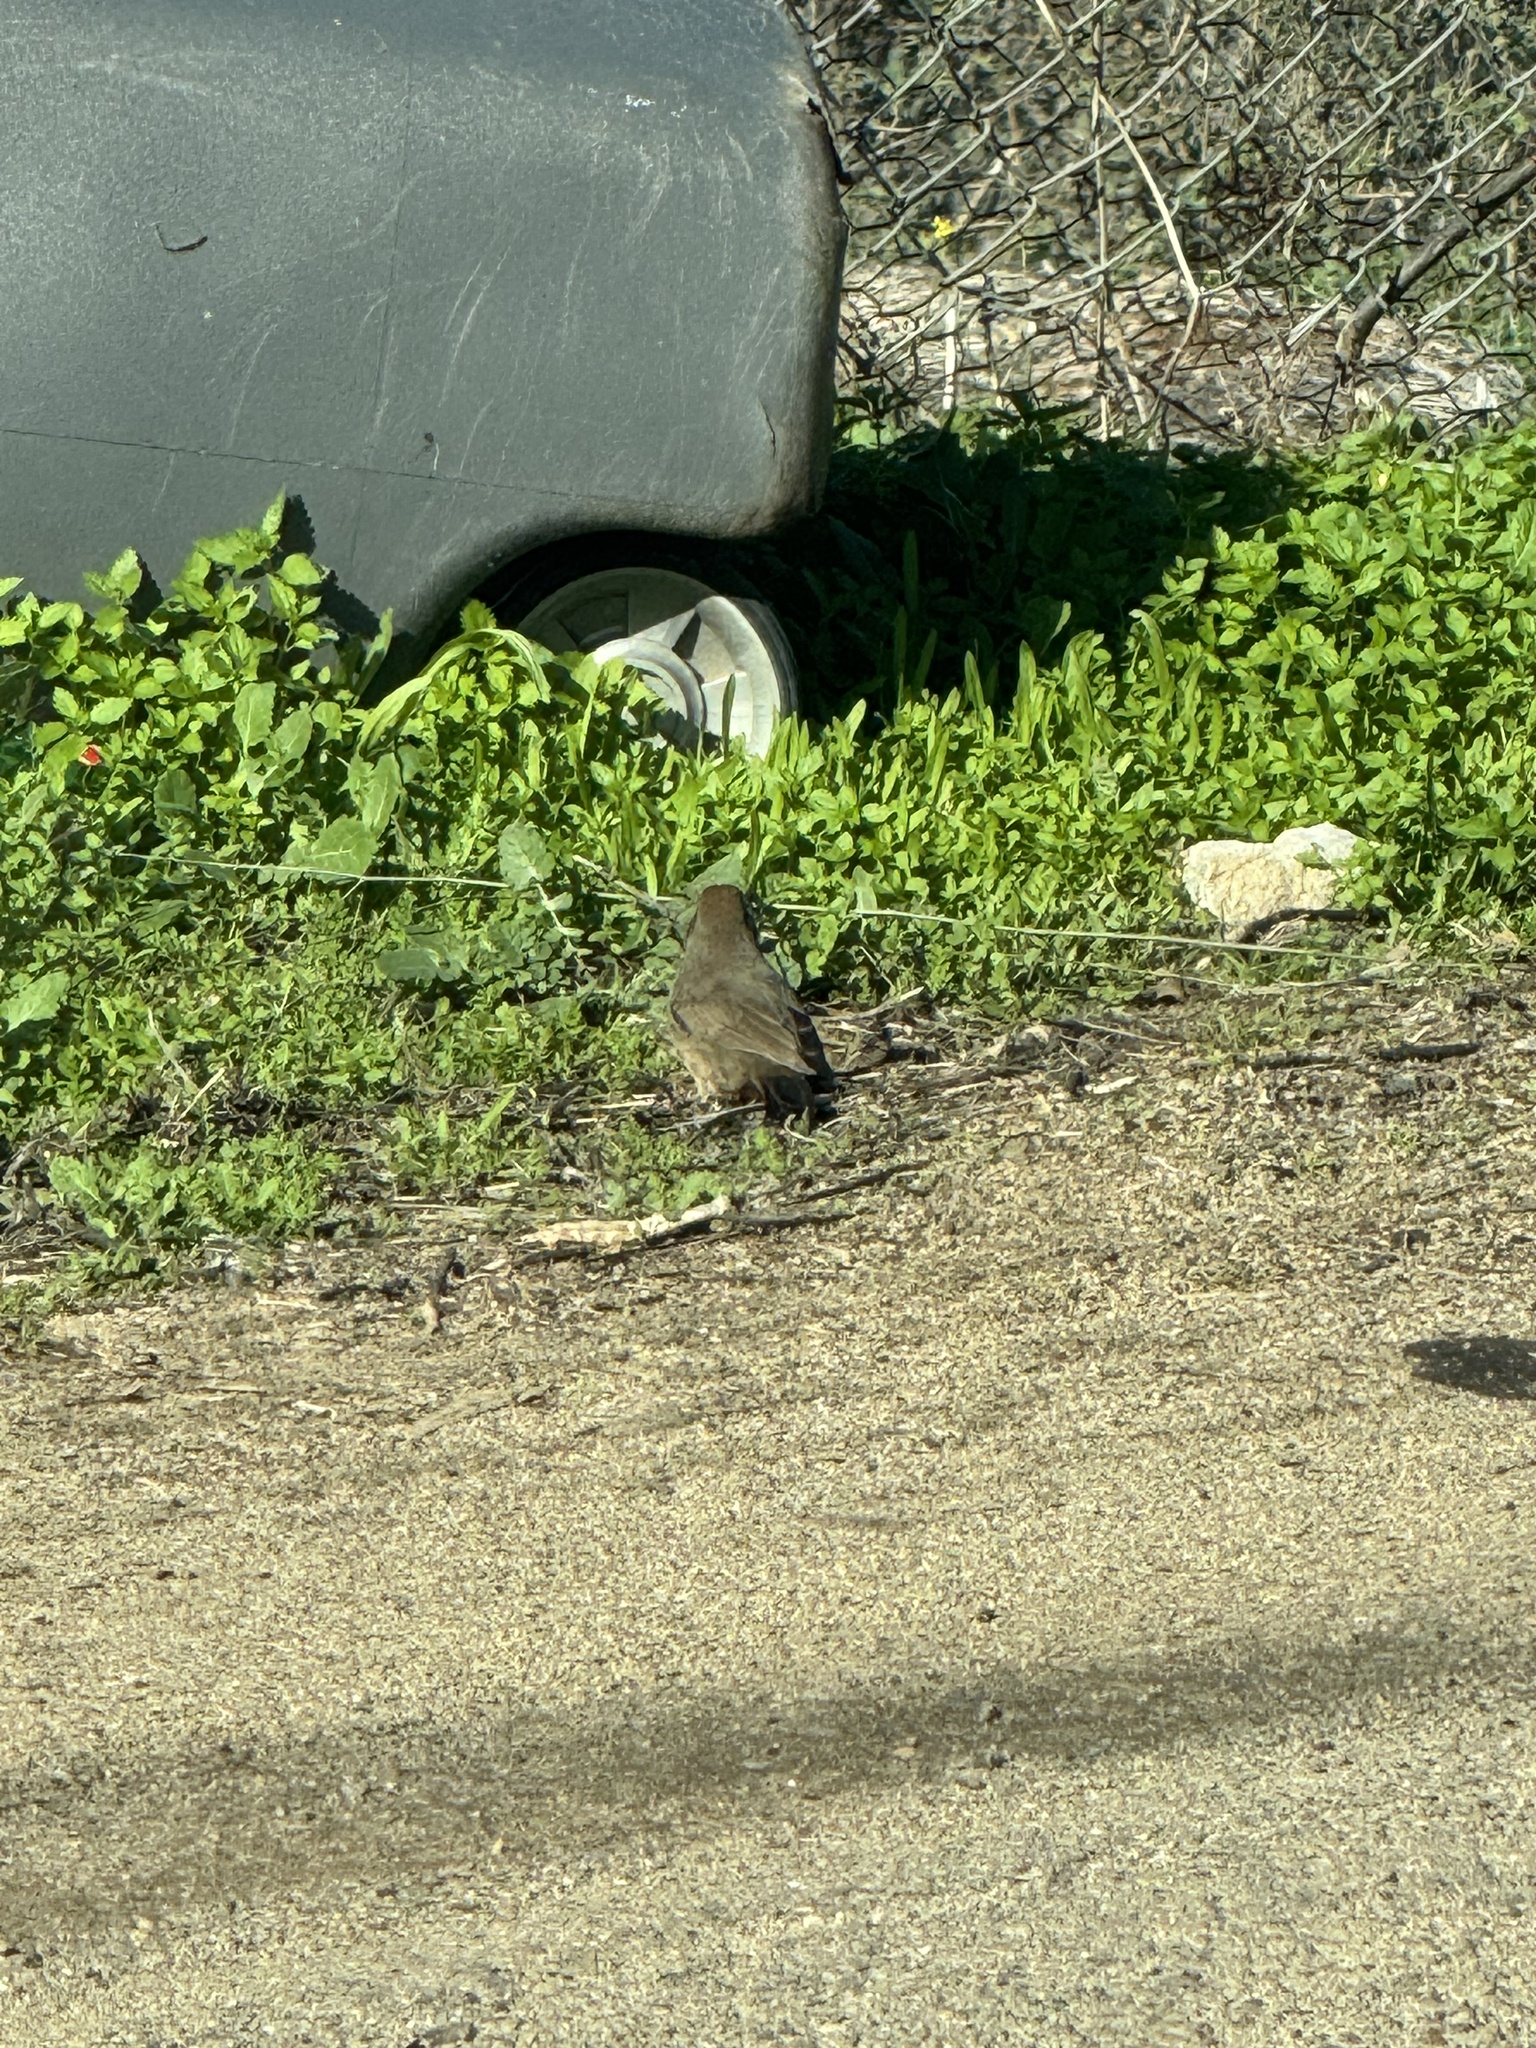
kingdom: Animalia
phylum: Chordata
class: Aves
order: Passeriformes
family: Passerellidae
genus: Melozone
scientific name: Melozone crissalis
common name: California towhee
